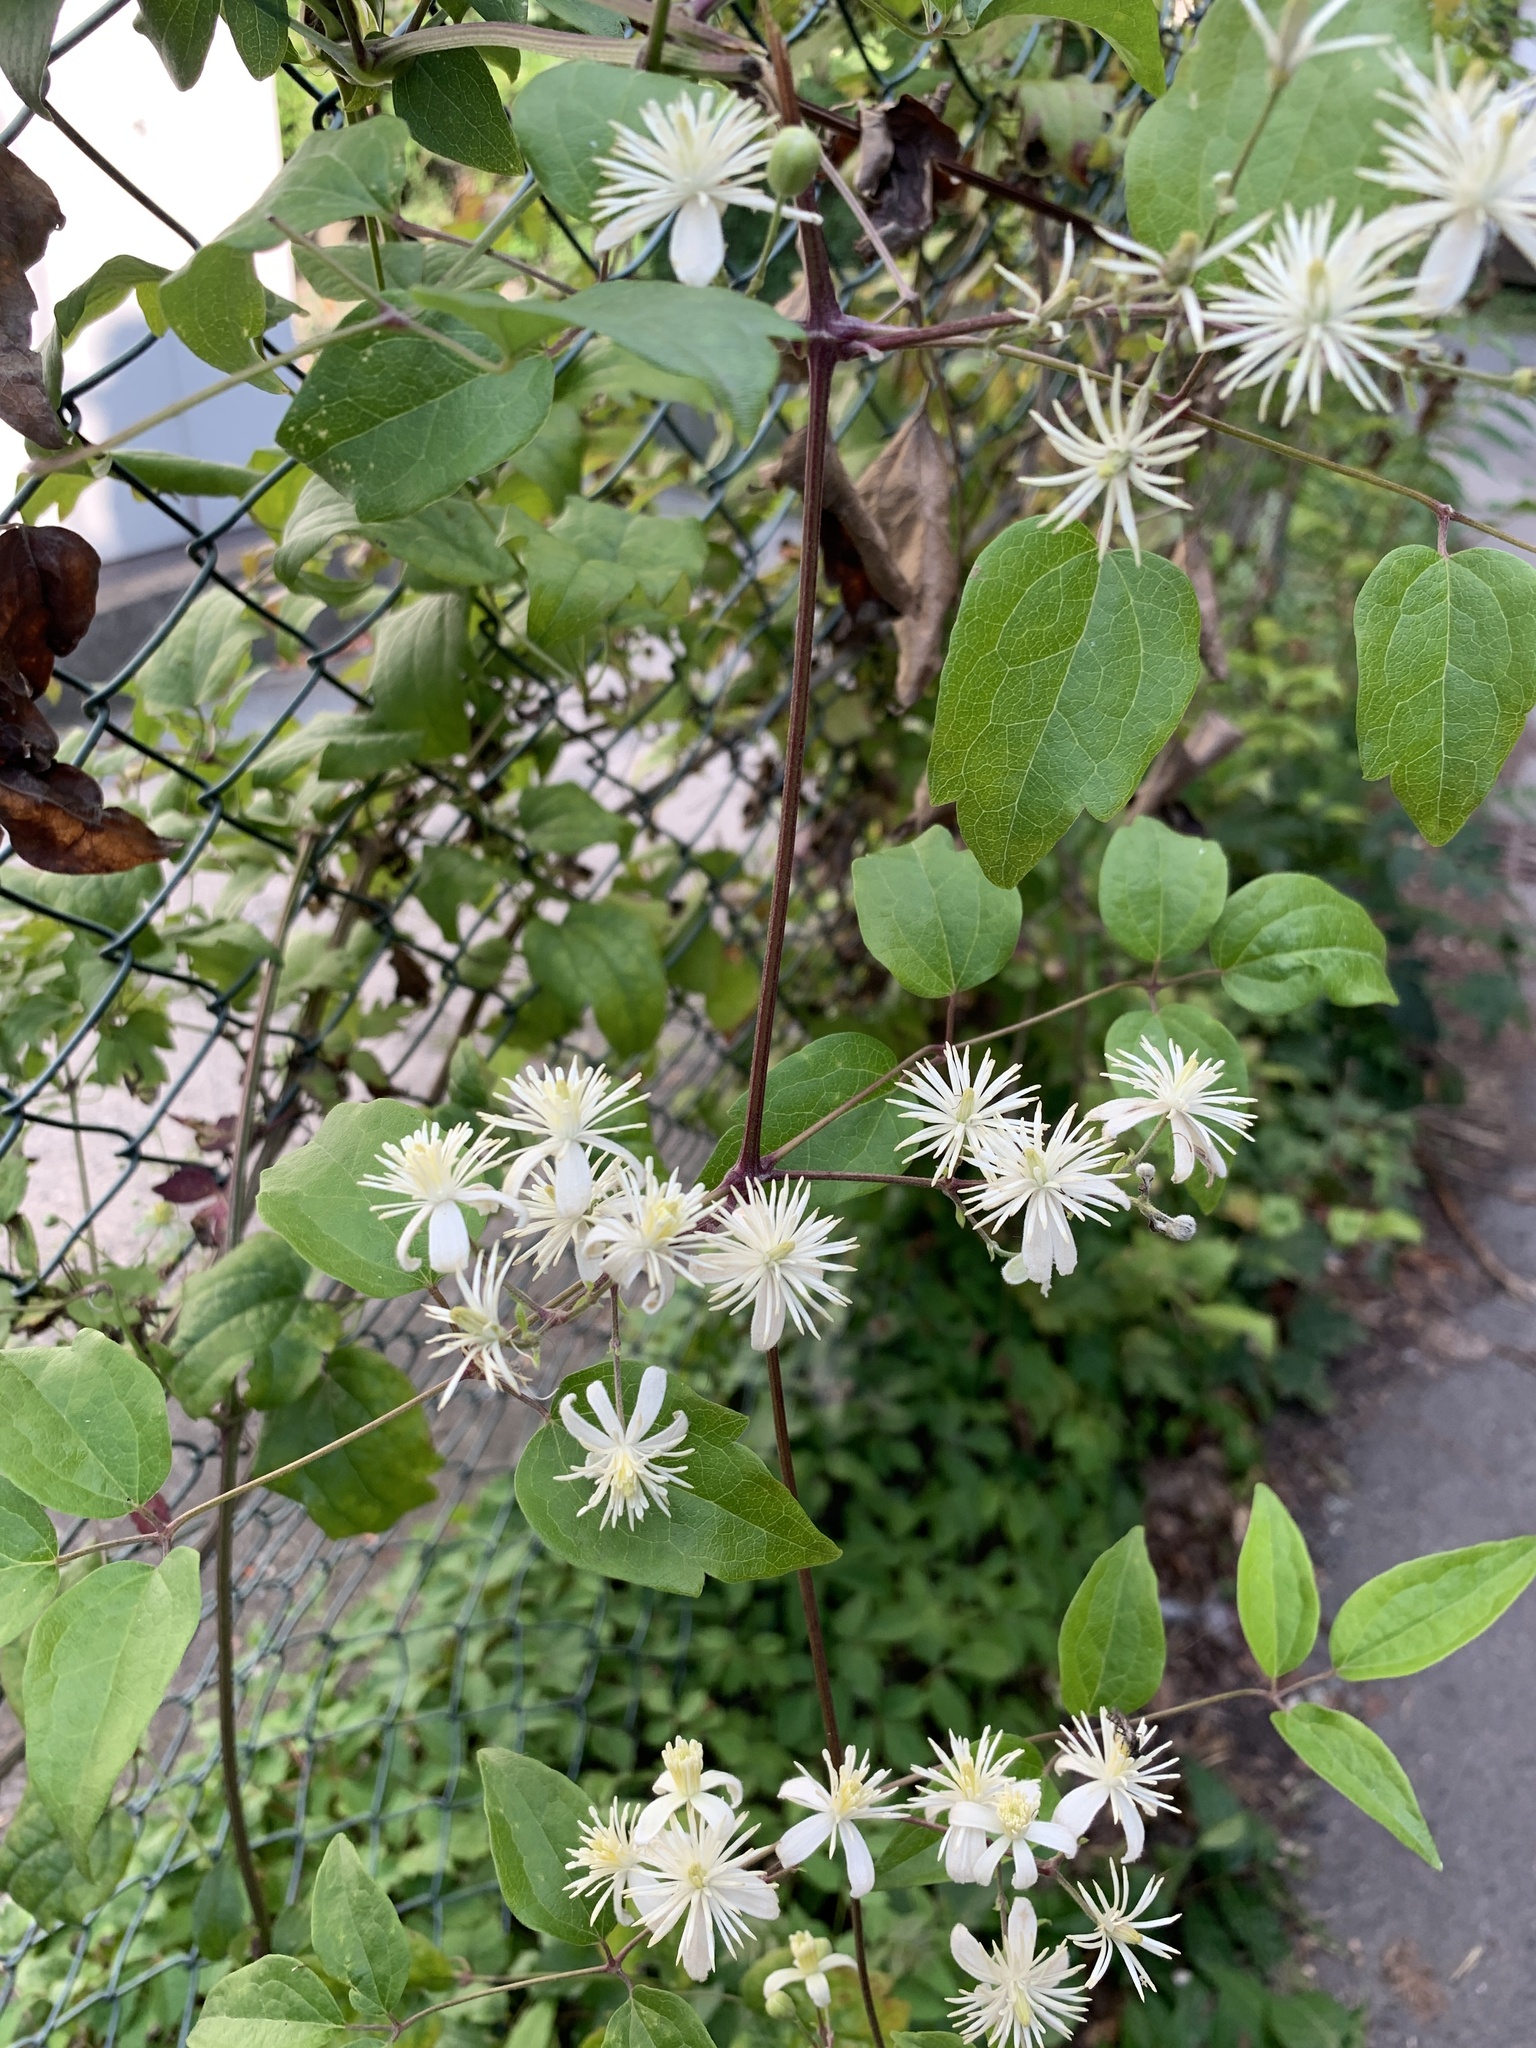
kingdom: Plantae
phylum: Tracheophyta
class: Magnoliopsida
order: Ranunculales
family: Ranunculaceae
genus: Clematis
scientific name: Clematis vitalba
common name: Evergreen clematis
